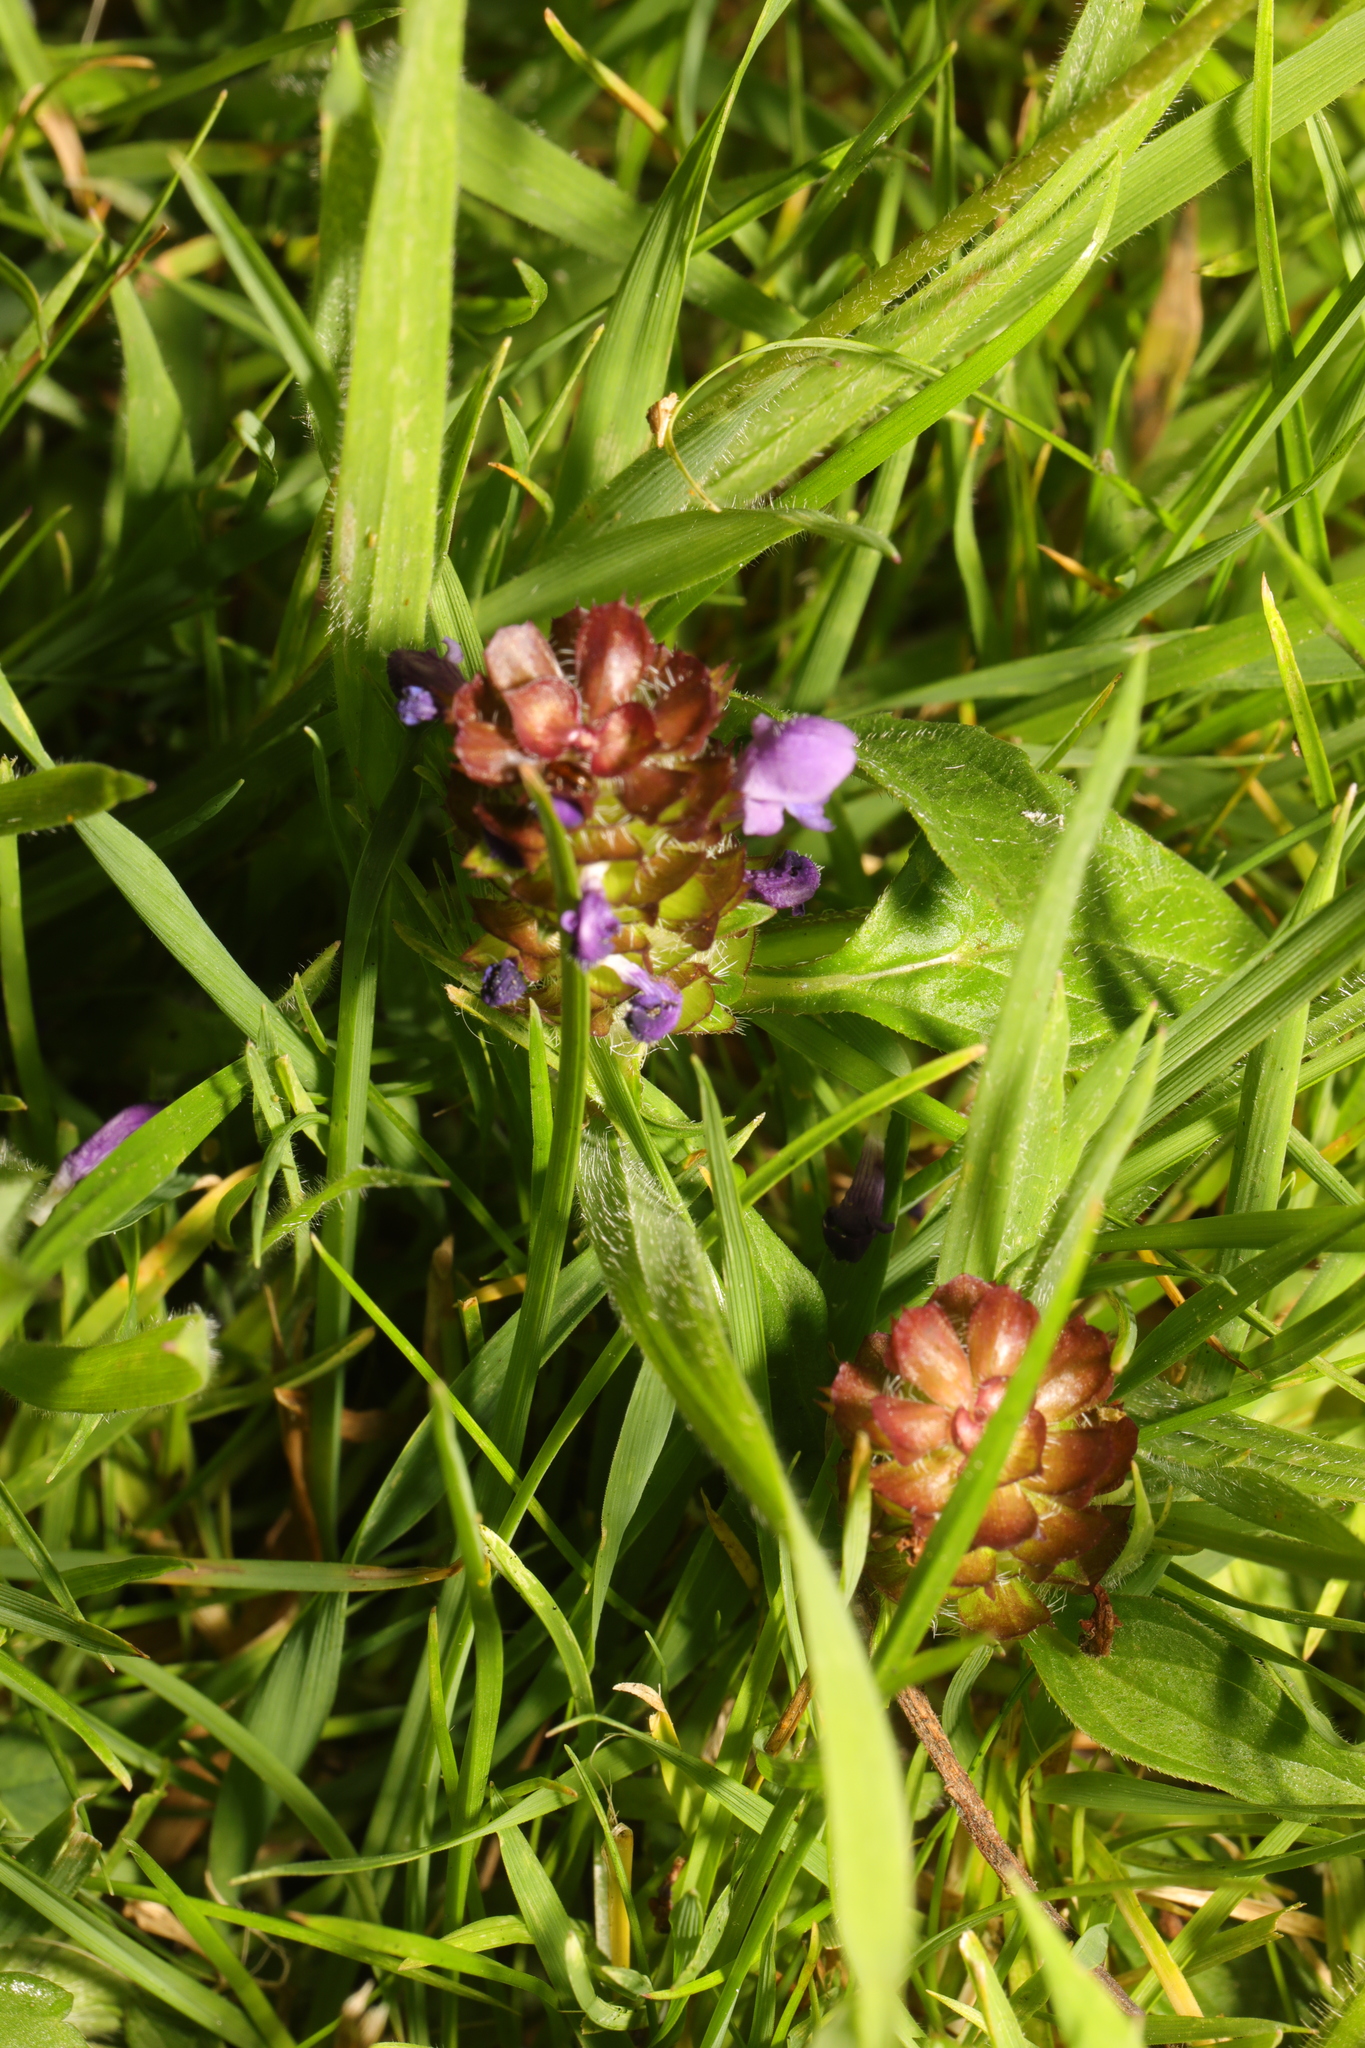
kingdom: Plantae
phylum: Tracheophyta
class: Magnoliopsida
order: Lamiales
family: Lamiaceae
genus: Prunella
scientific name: Prunella vulgaris
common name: Heal-all
